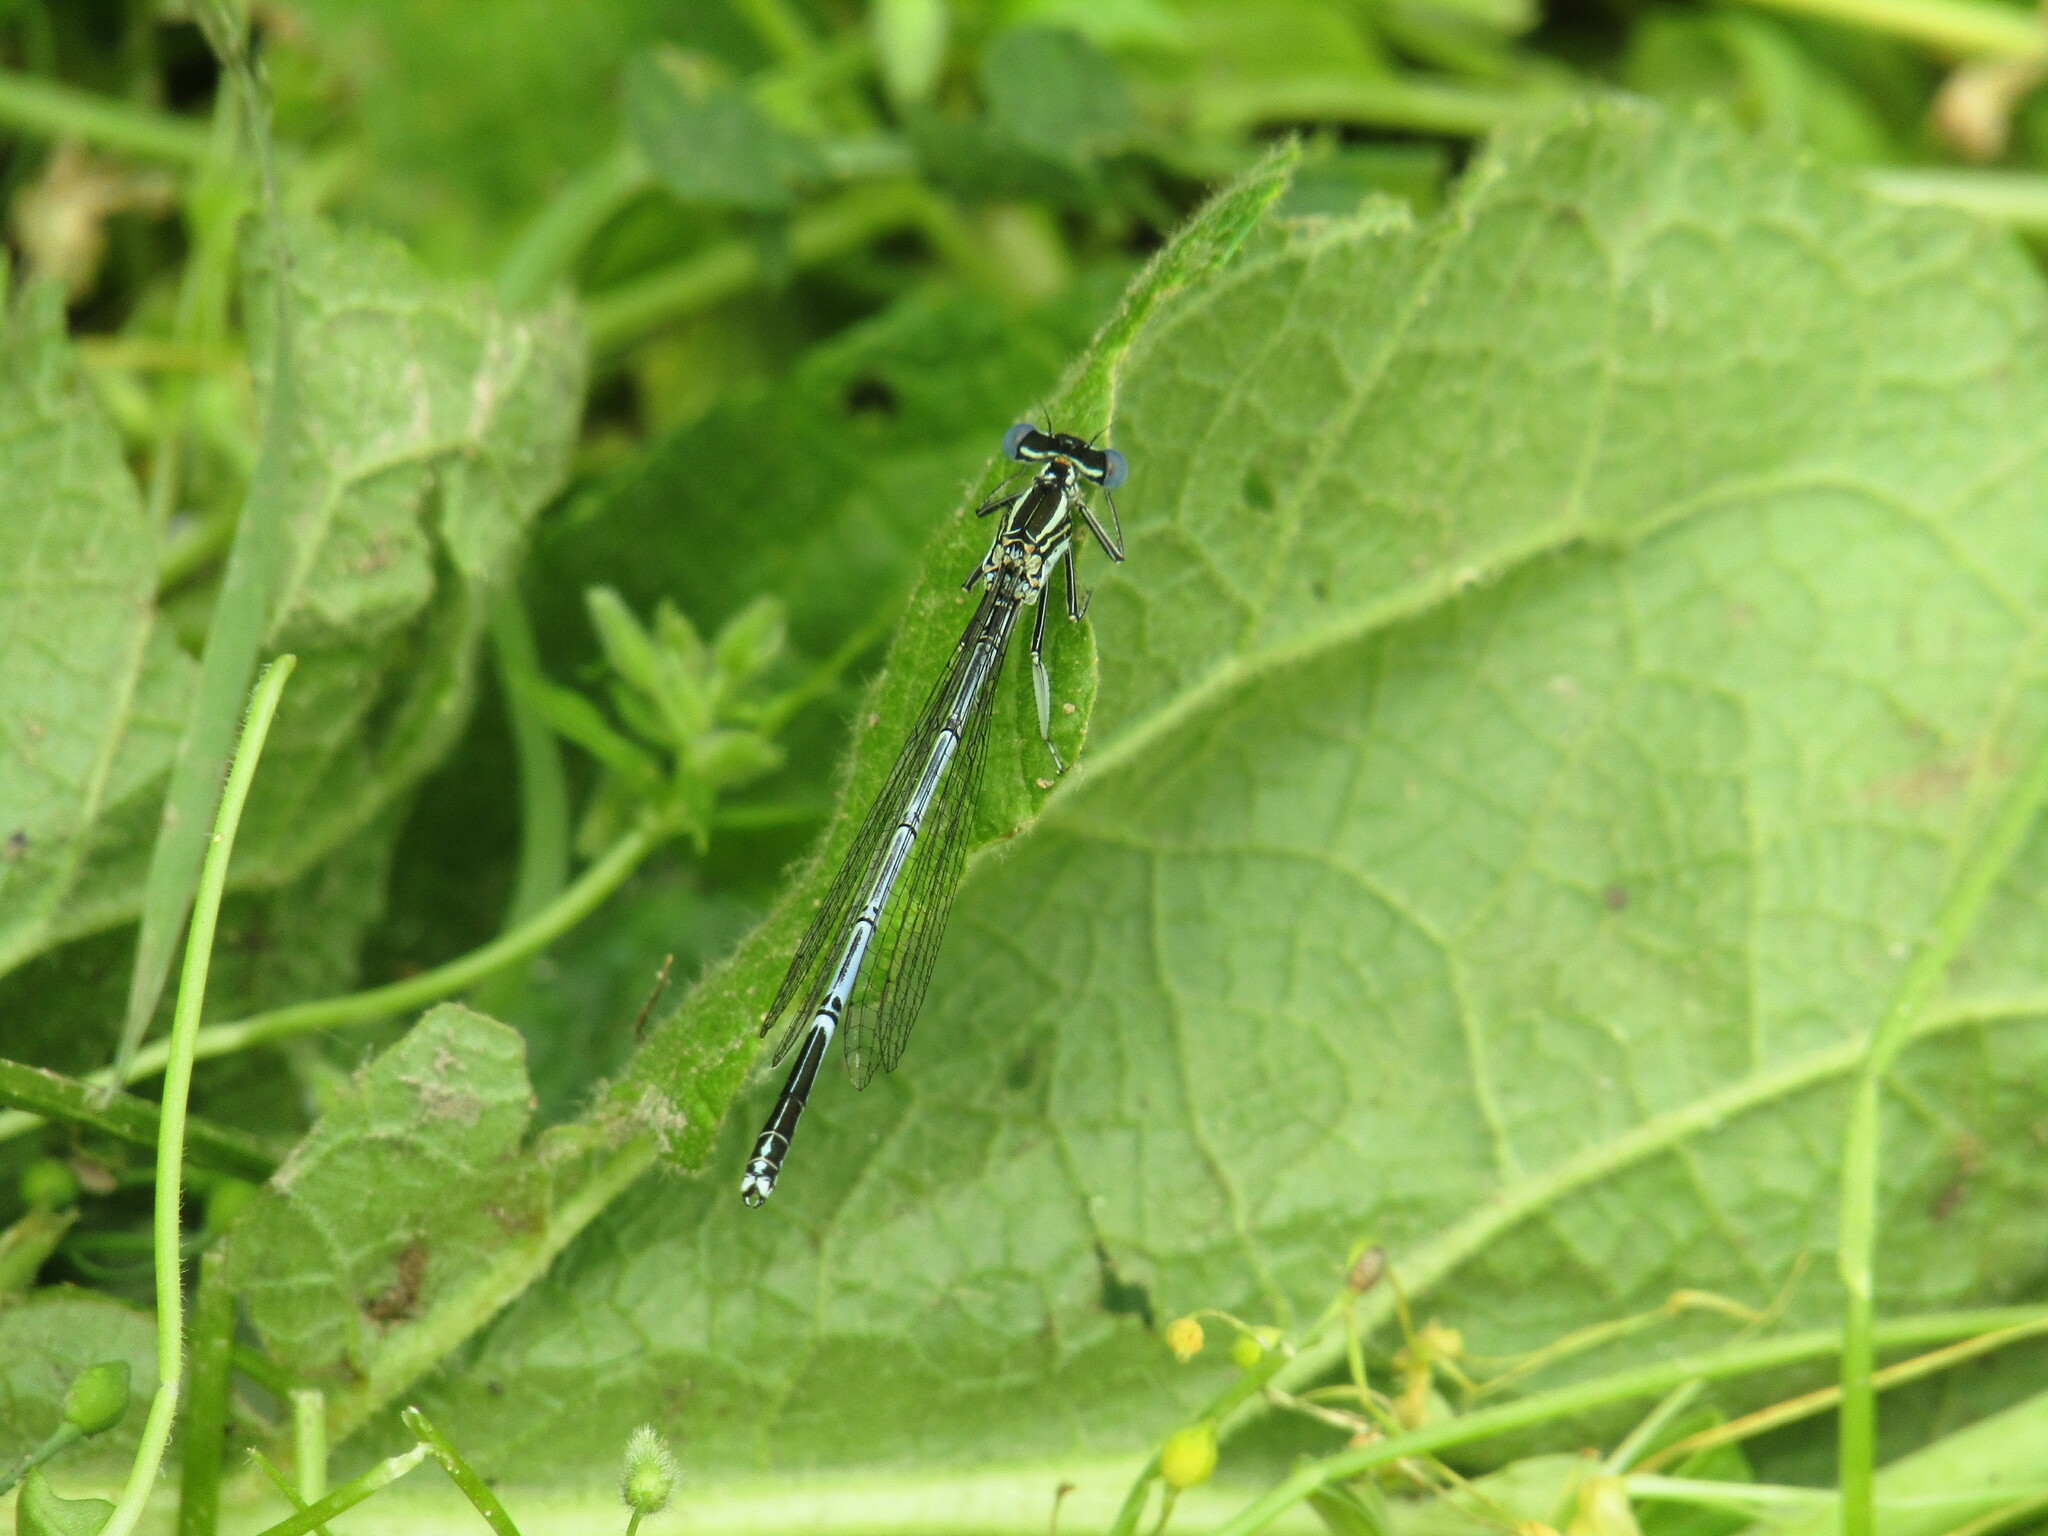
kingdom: Animalia
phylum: Arthropoda
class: Insecta
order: Odonata
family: Platycnemididae
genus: Platycnemis
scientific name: Platycnemis pennipes
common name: White-legged damselfly
